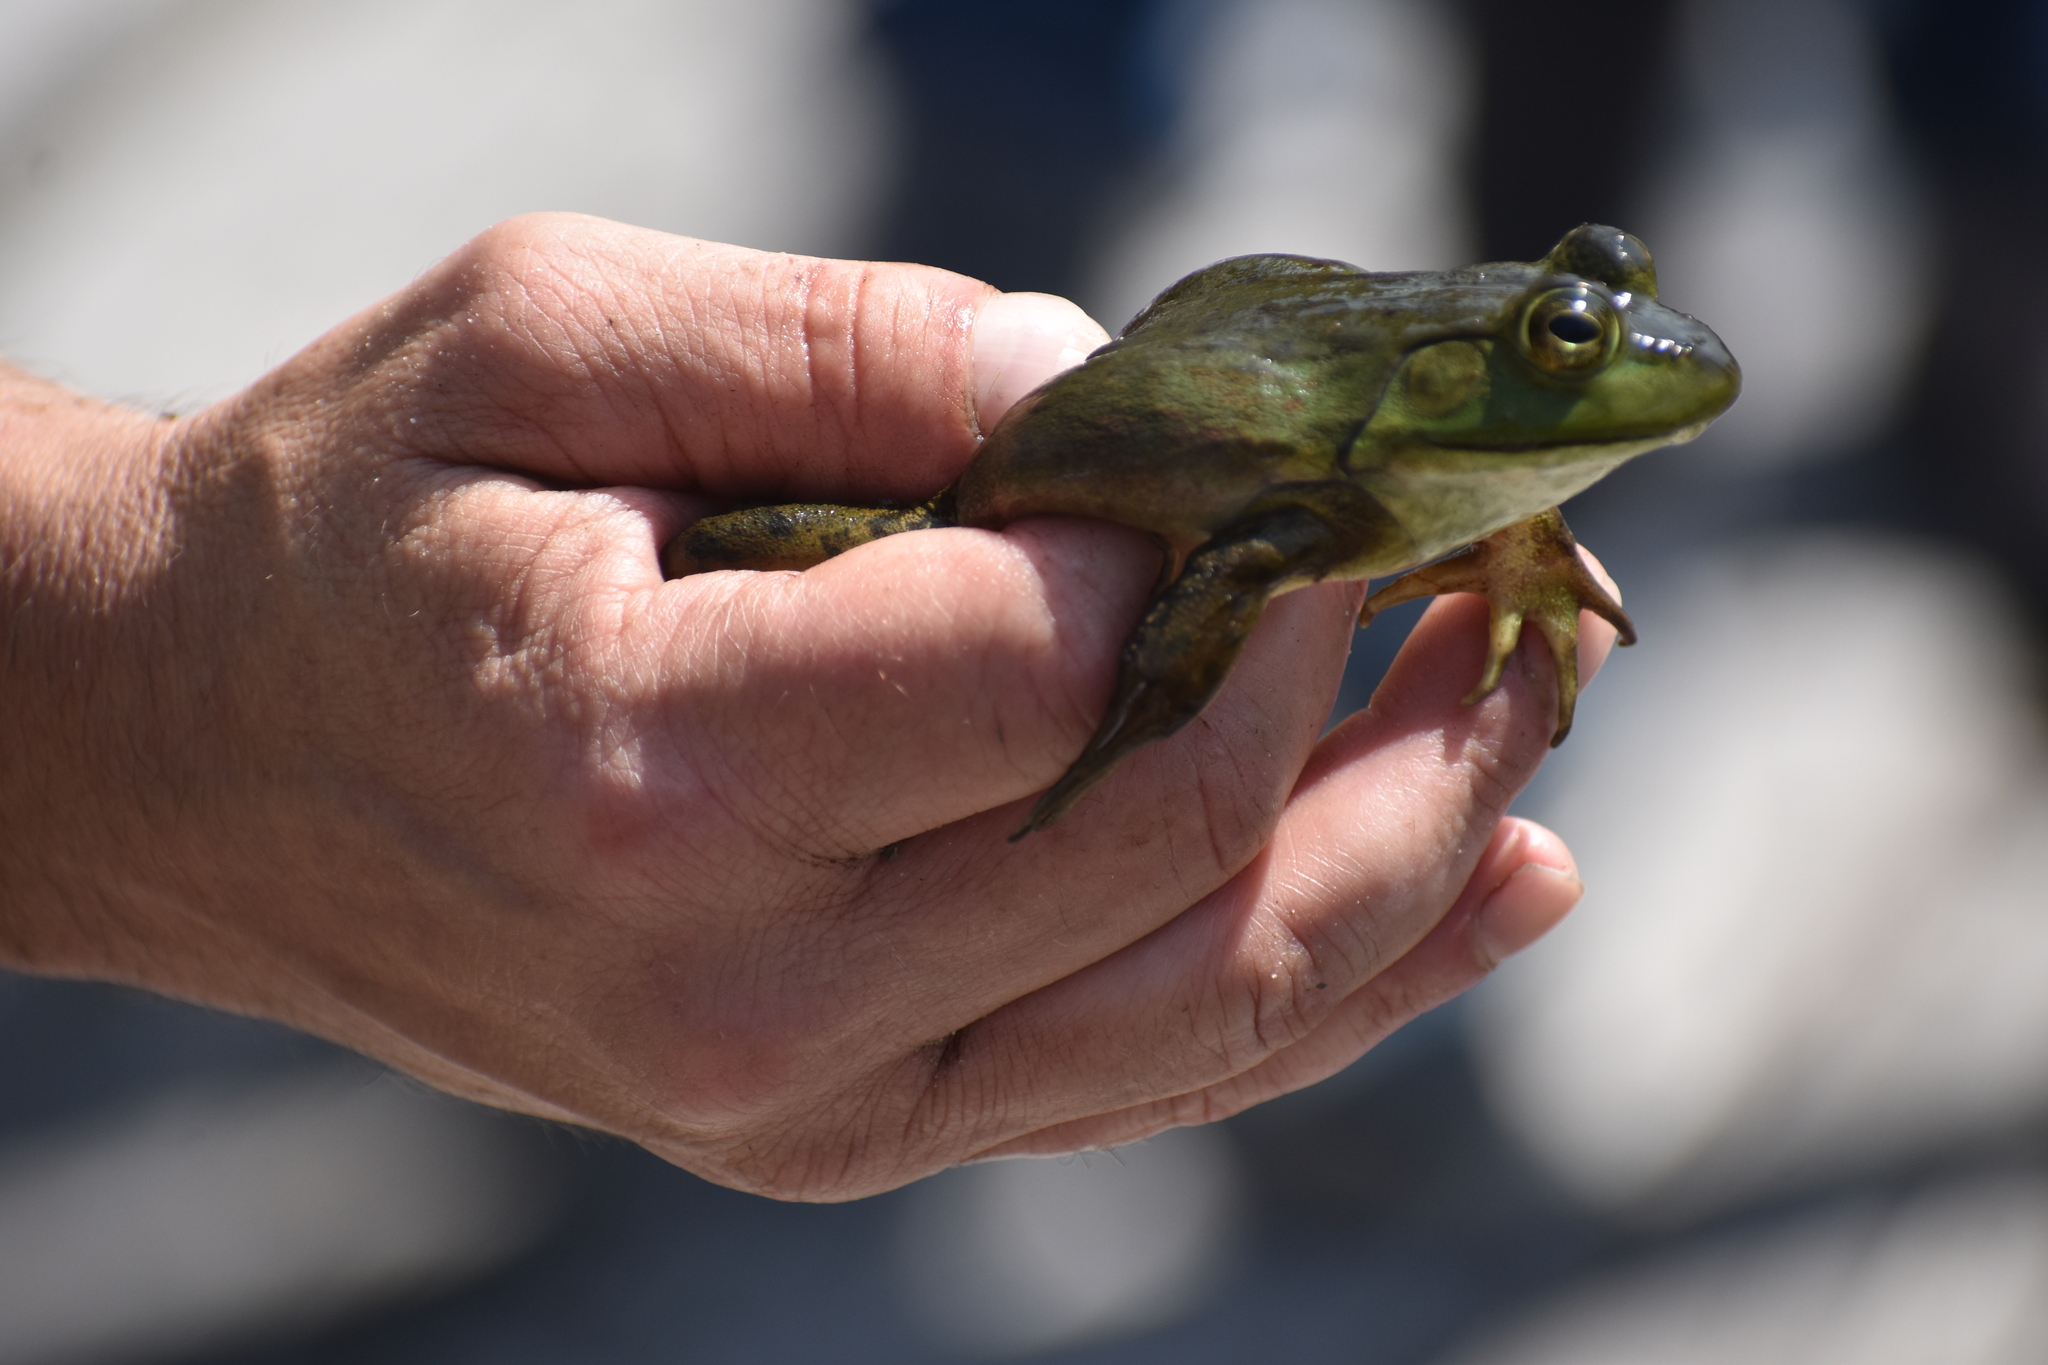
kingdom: Animalia
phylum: Chordata
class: Amphibia
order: Anura
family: Ranidae
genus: Lithobates
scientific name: Lithobates catesbeianus
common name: American bullfrog
